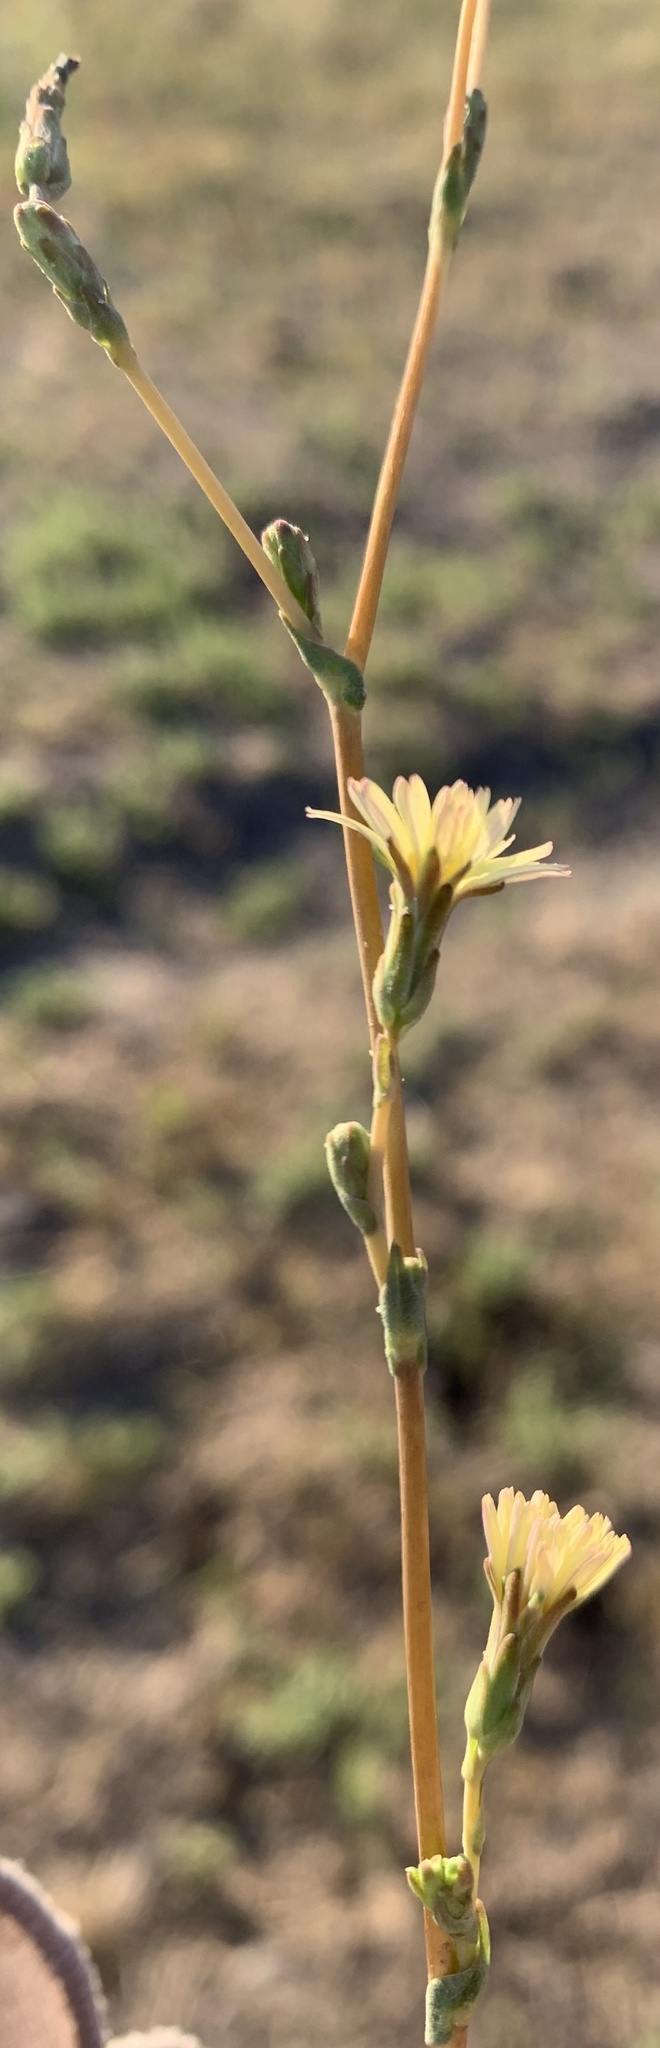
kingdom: Plantae
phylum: Tracheophyta
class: Magnoliopsida
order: Asterales
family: Asteraceae
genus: Lactuca
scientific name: Lactuca serriola
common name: Prickly lettuce
